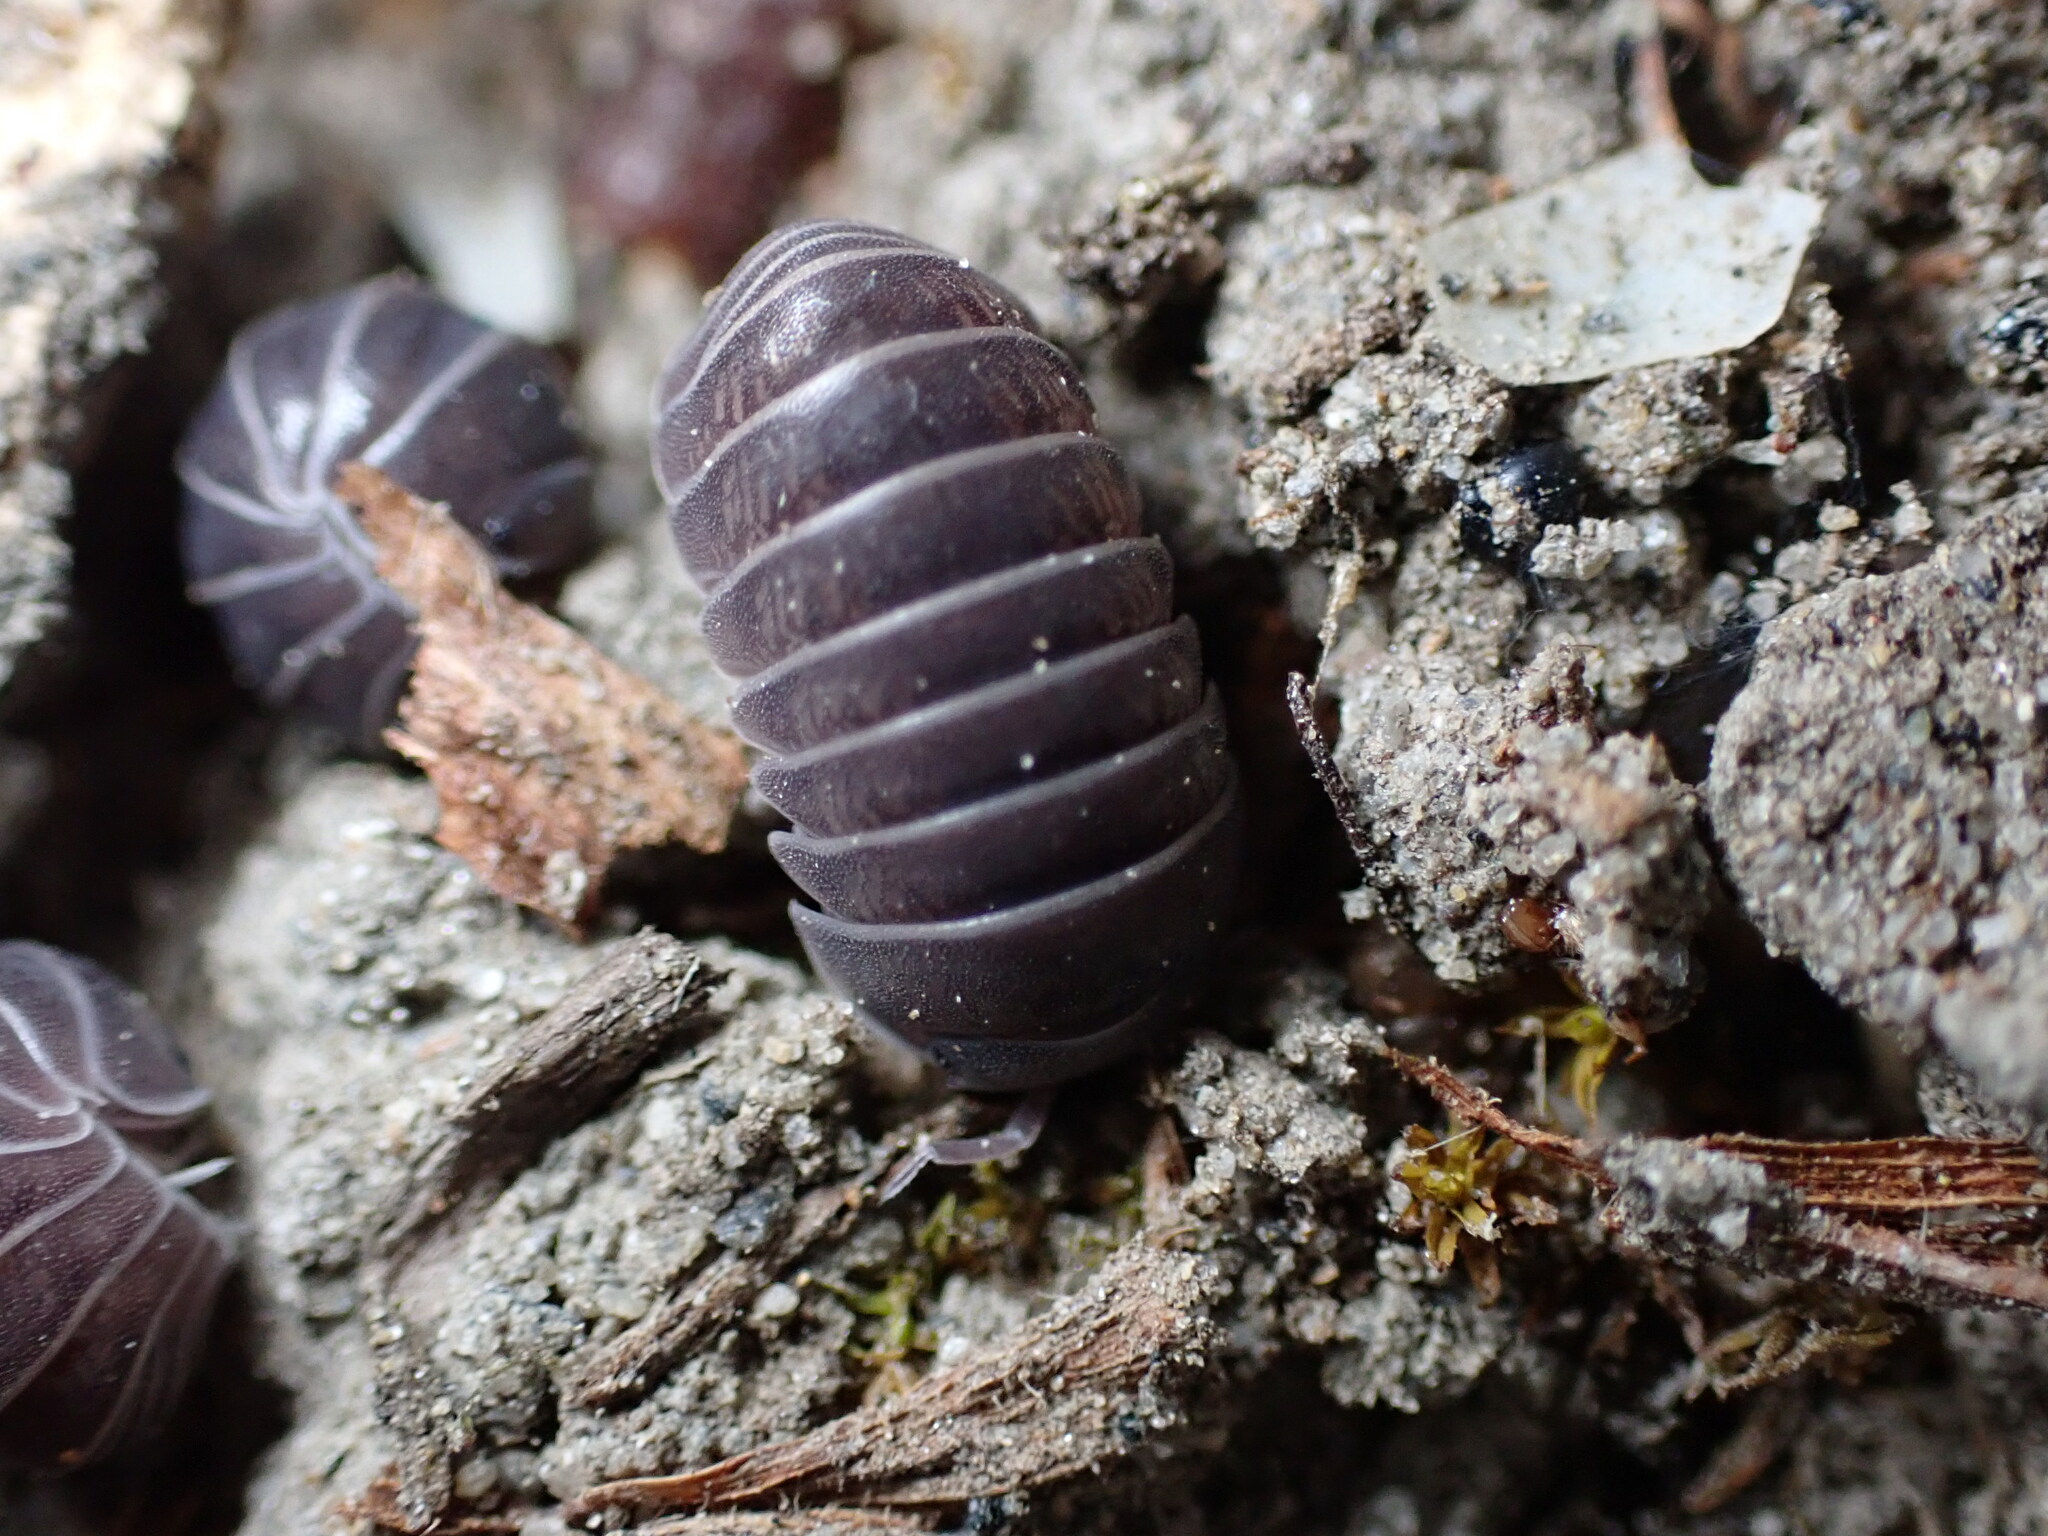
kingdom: Animalia
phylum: Arthropoda
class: Malacostraca
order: Isopoda
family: Armadillidae
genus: Armadillo
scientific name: Armadillo officinalis
